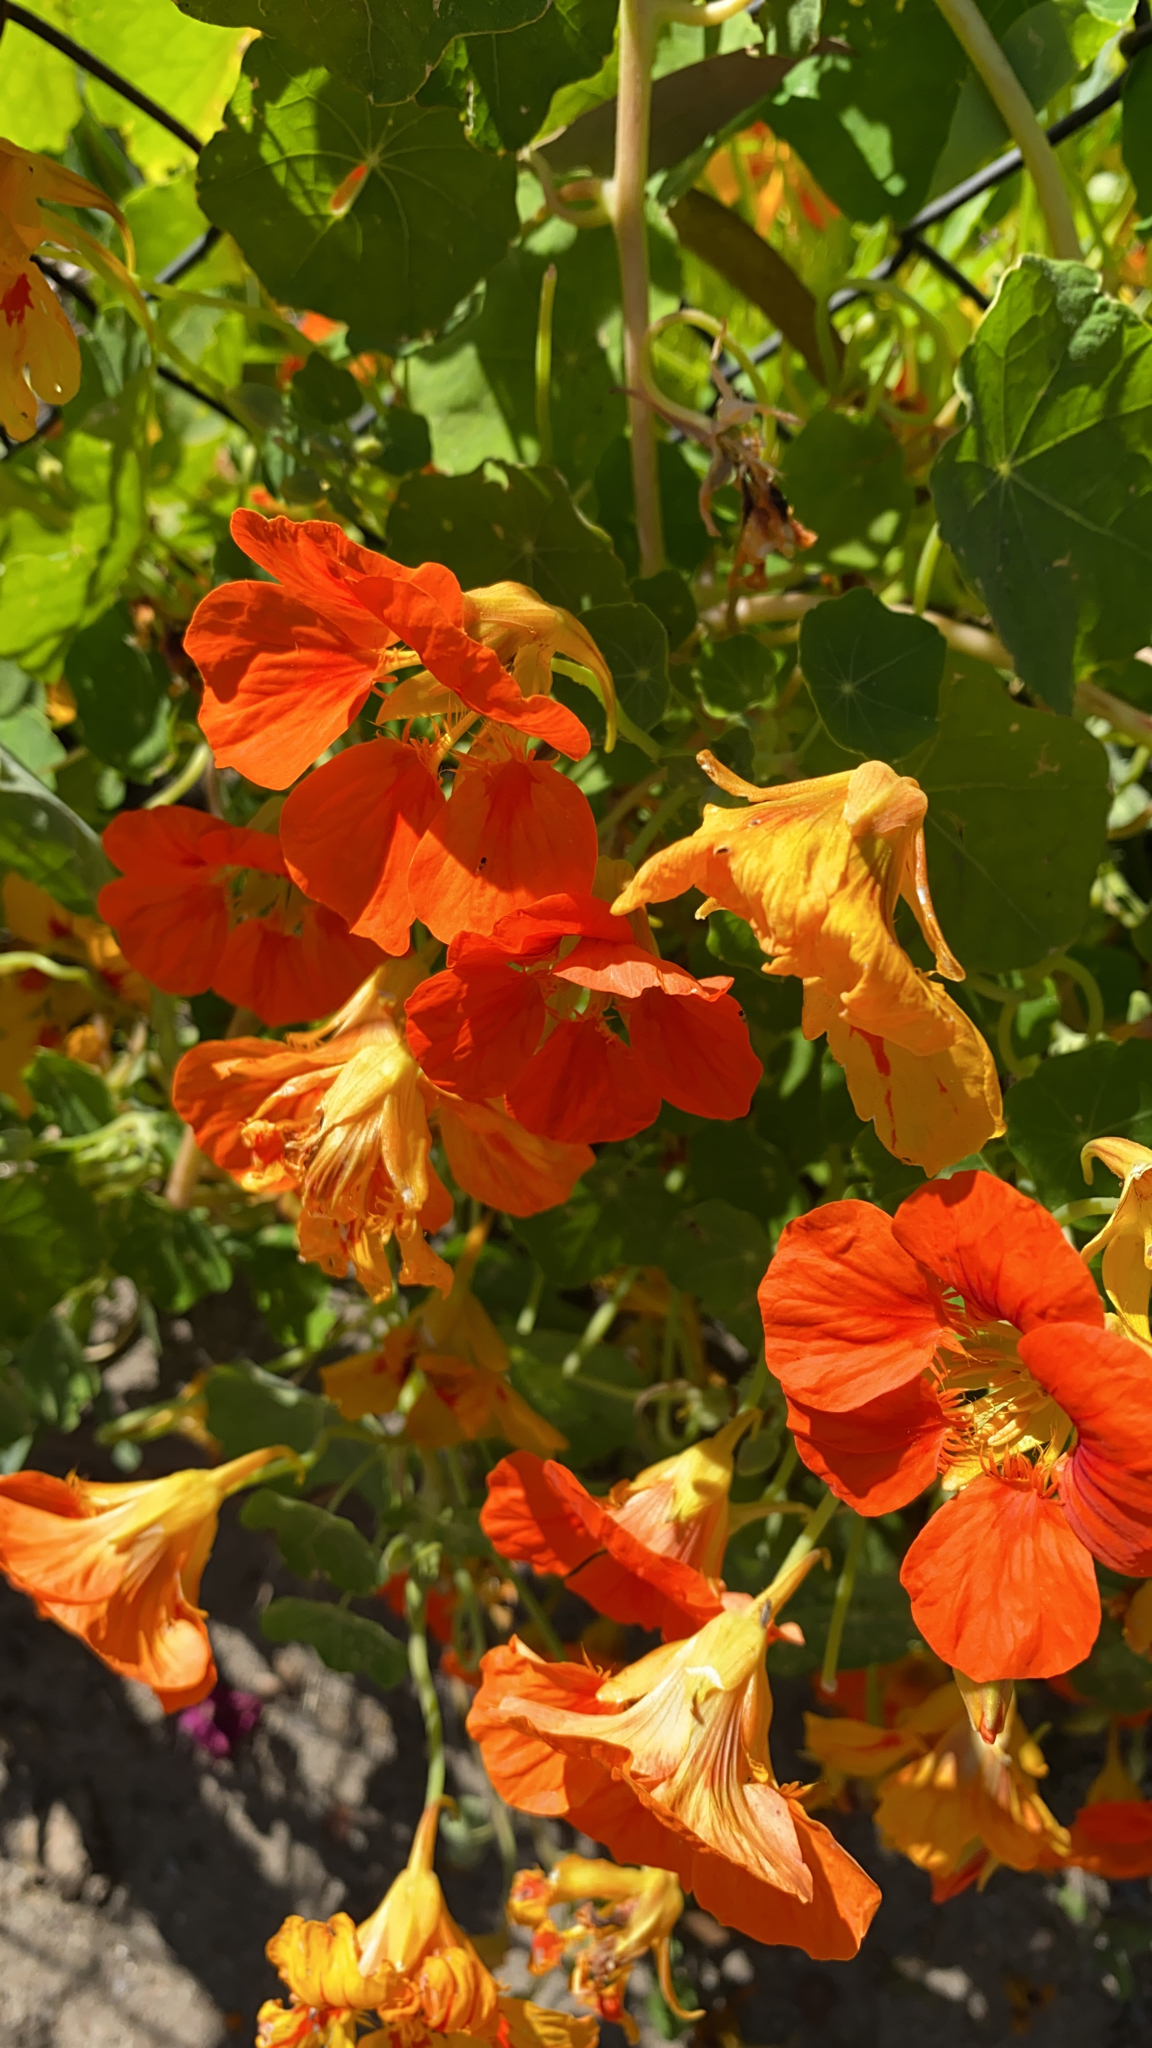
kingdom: Plantae
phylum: Tracheophyta
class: Magnoliopsida
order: Brassicales
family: Tropaeolaceae
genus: Tropaeolum
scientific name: Tropaeolum majus
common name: Nasturtium
